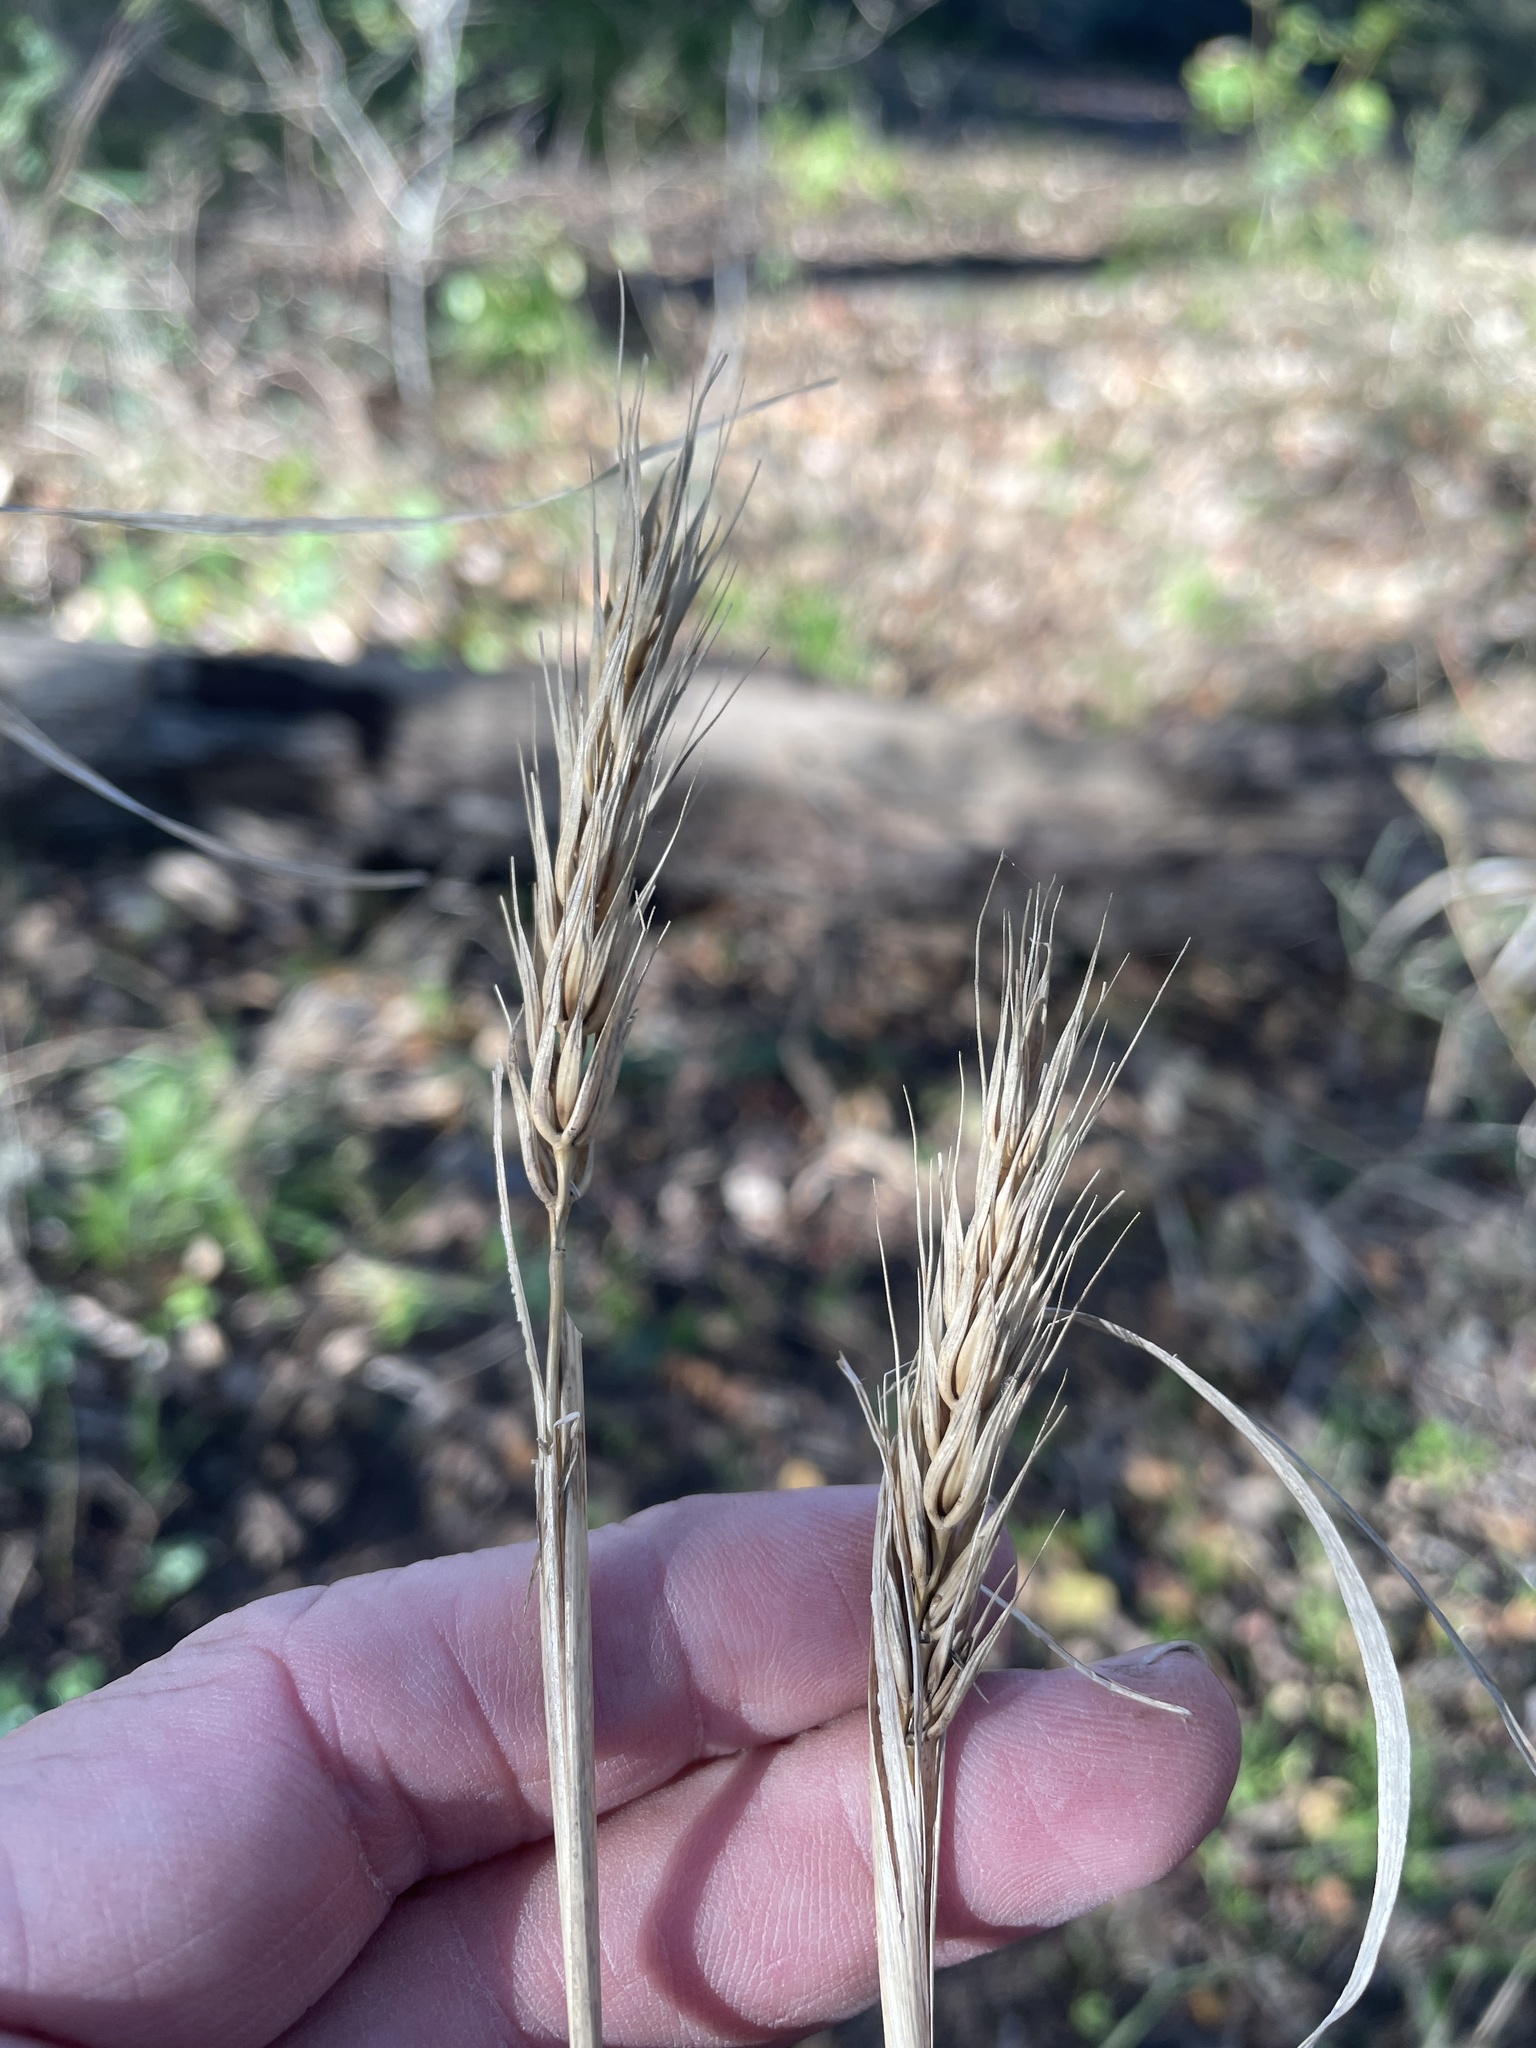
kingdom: Plantae
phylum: Tracheophyta
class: Liliopsida
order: Poales
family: Poaceae
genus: Elymus
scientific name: Elymus virginicus
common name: Common eastern wildrye
